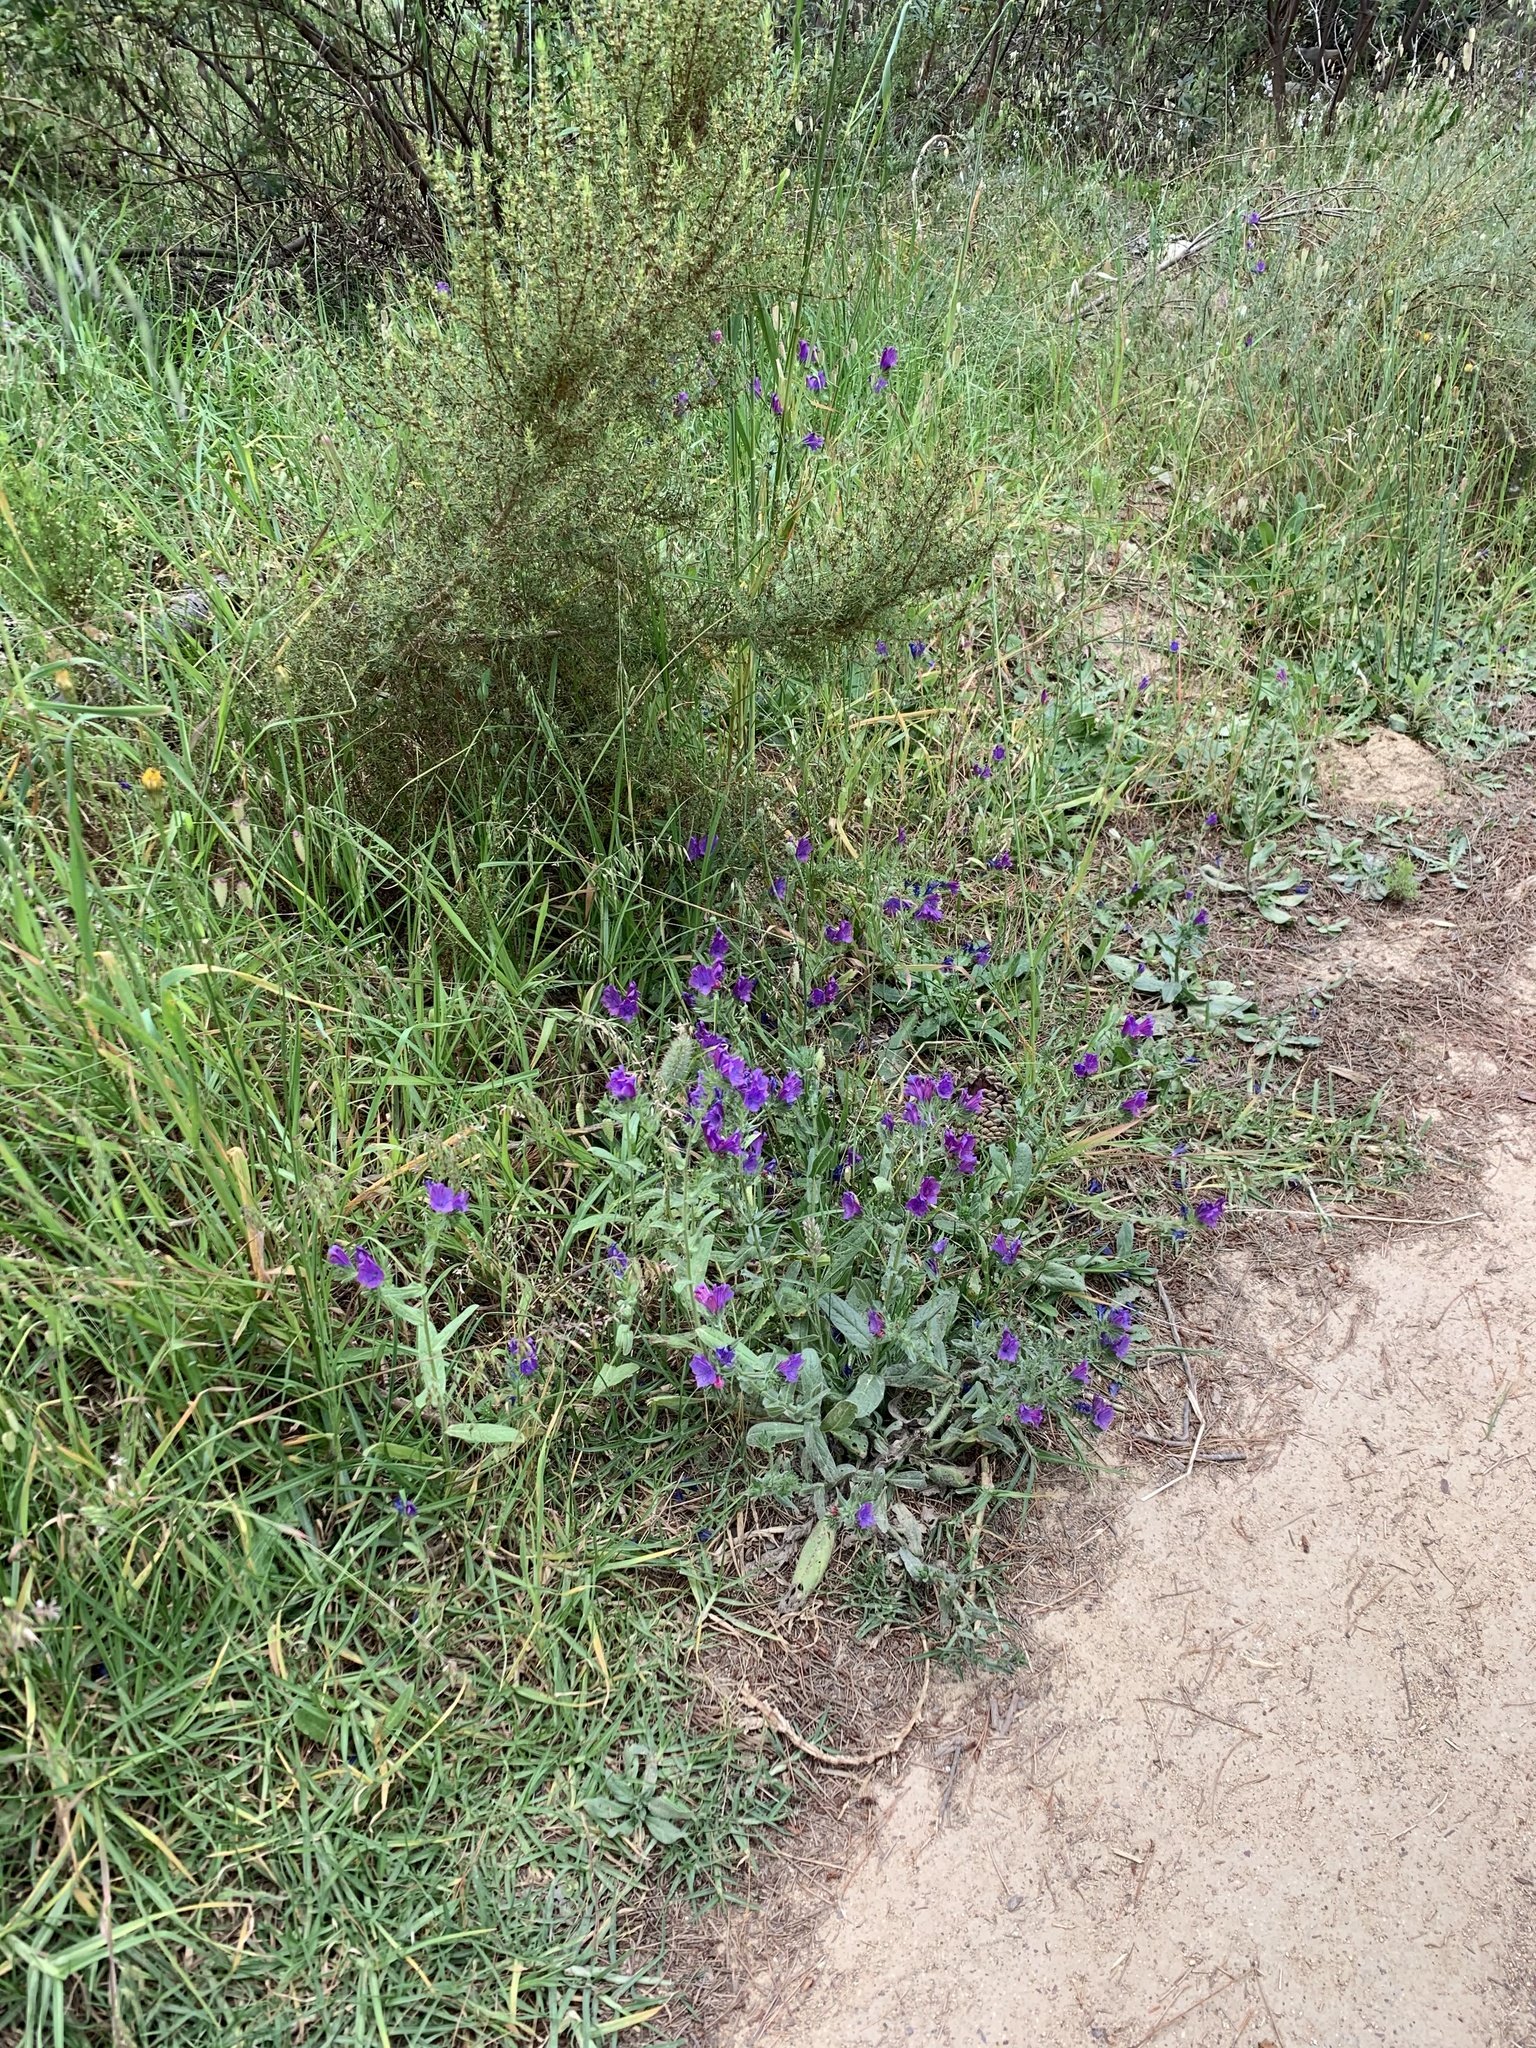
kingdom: Plantae
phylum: Tracheophyta
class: Magnoliopsida
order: Boraginales
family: Boraginaceae
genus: Echium
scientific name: Echium plantagineum
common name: Purple viper's-bugloss
